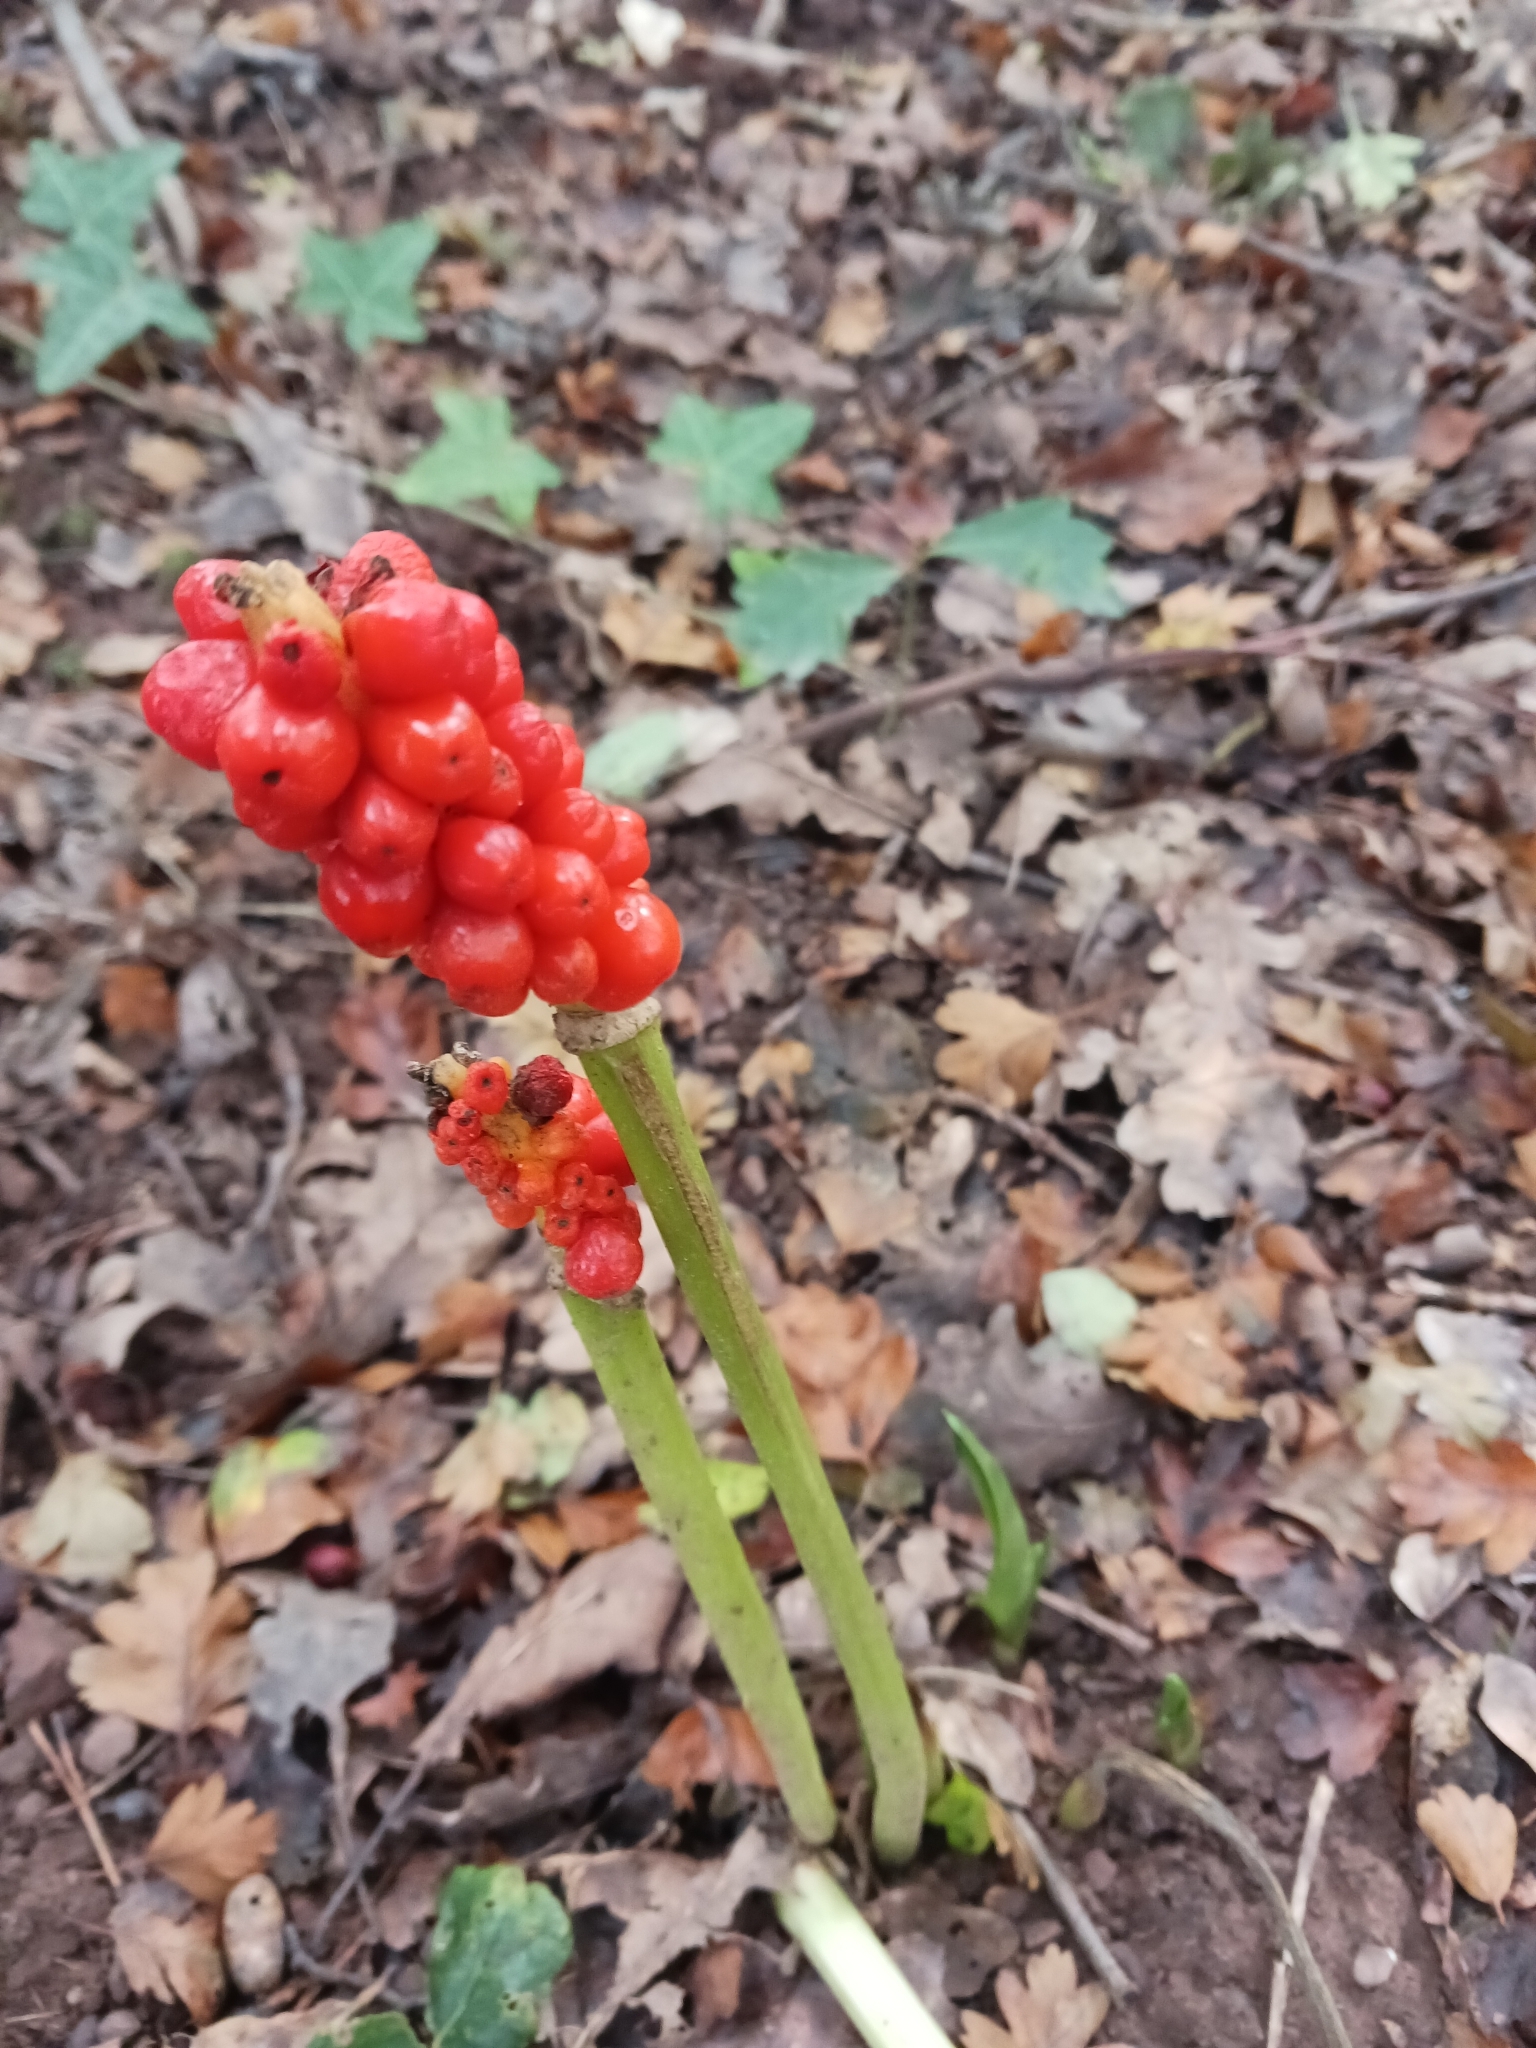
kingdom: Plantae
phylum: Tracheophyta
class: Liliopsida
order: Alismatales
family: Araceae
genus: Arum
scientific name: Arum maculatum
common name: Lords-and-ladies
